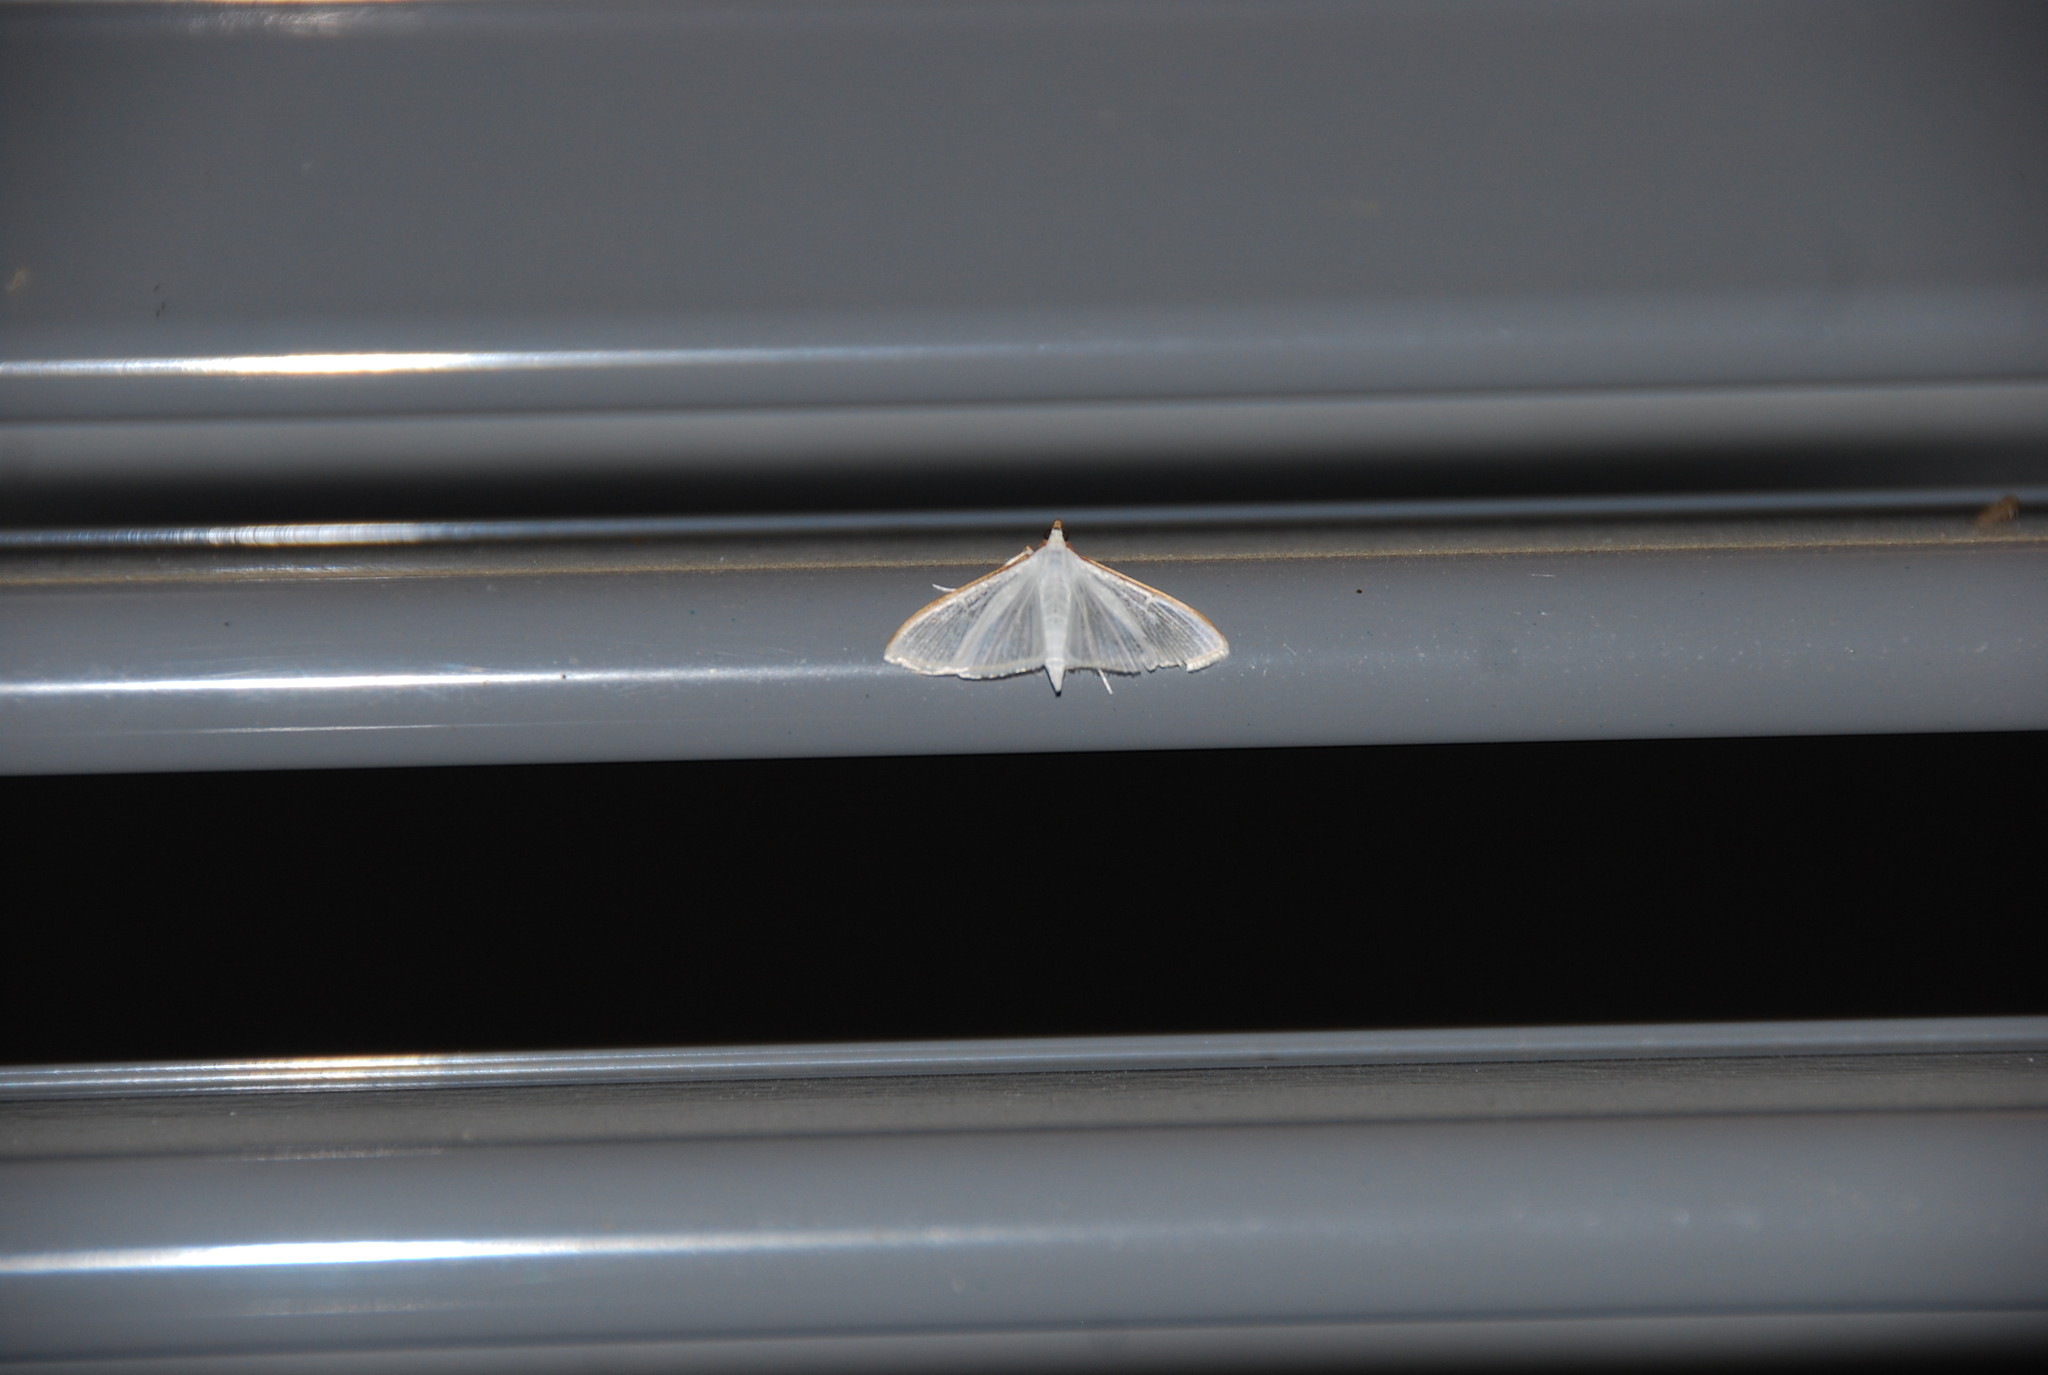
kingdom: Animalia
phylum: Arthropoda
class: Insecta
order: Lepidoptera
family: Crambidae
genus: Palpita
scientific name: Palpita vitrealis
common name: Olive-tree pearl
